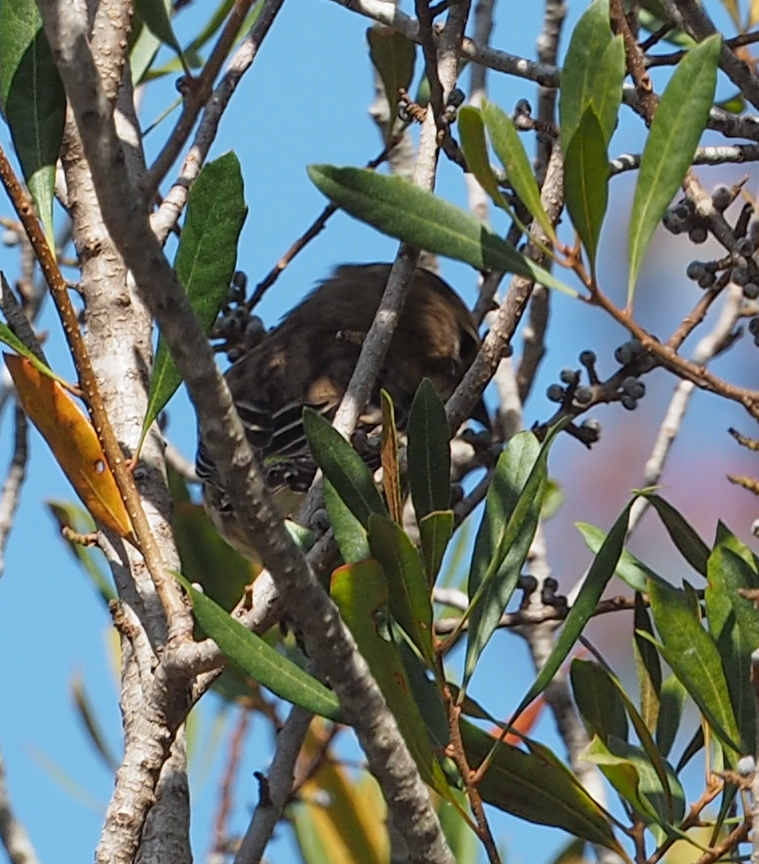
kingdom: Animalia
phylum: Chordata
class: Aves
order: Passeriformes
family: Parulidae
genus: Setophaga
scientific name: Setophaga coronata
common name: Myrtle warbler
